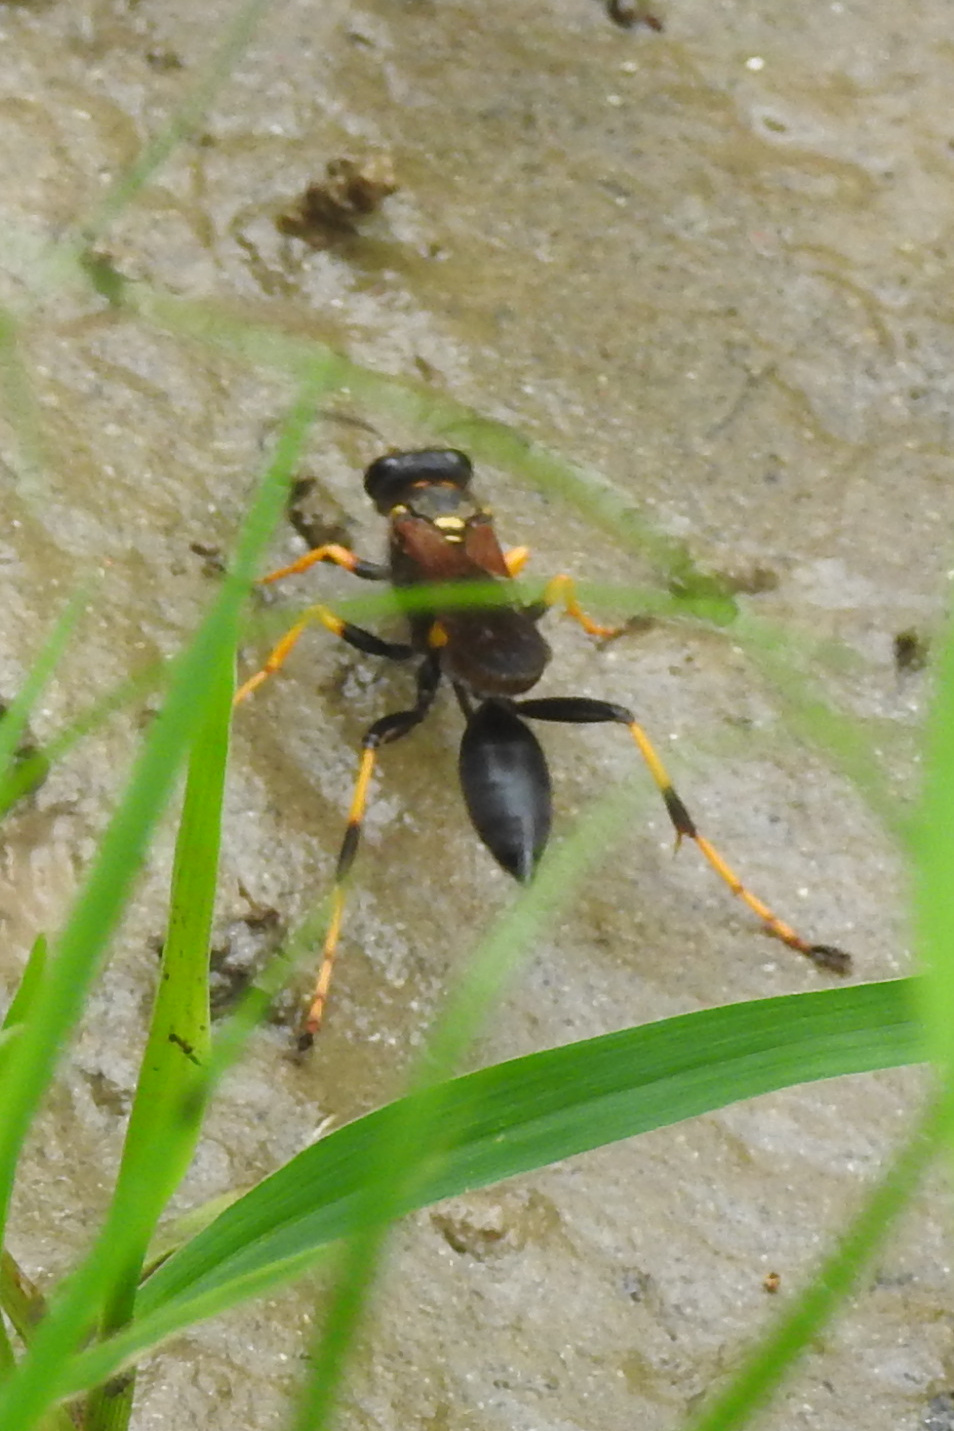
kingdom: Animalia
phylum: Arthropoda
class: Insecta
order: Hymenoptera
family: Sphecidae
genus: Sceliphron
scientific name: Sceliphron caementarium
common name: Mud dauber
